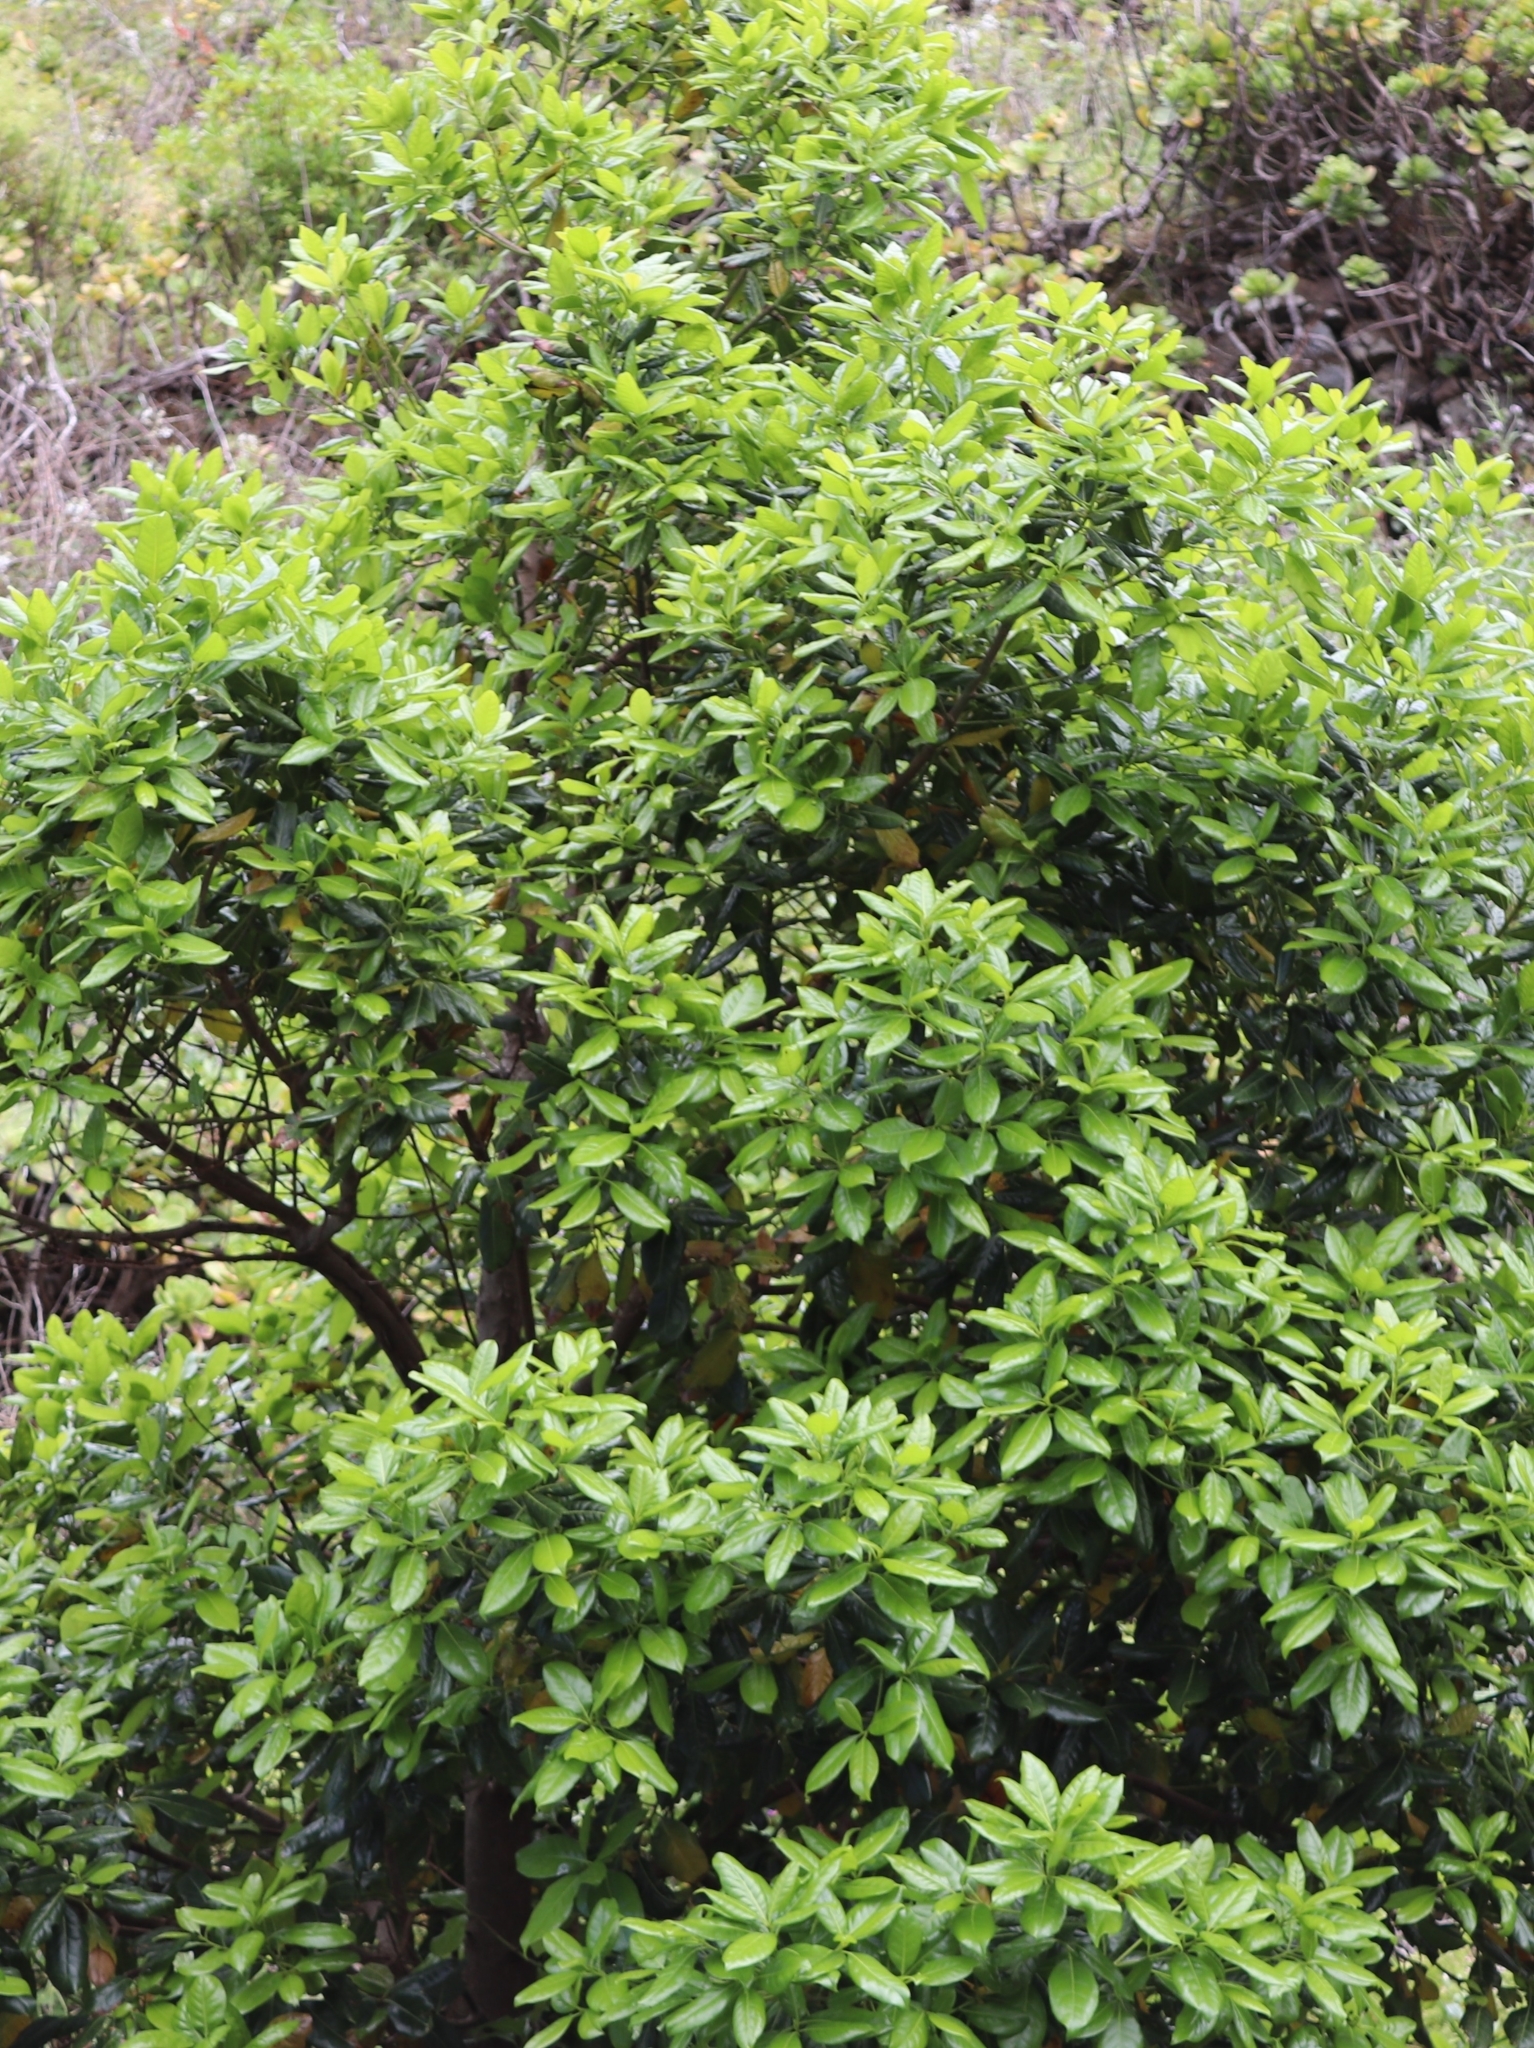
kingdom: Plantae
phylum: Tracheophyta
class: Magnoliopsida
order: Laurales
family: Lauraceae
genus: Apollonias
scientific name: Apollonias barbujana
